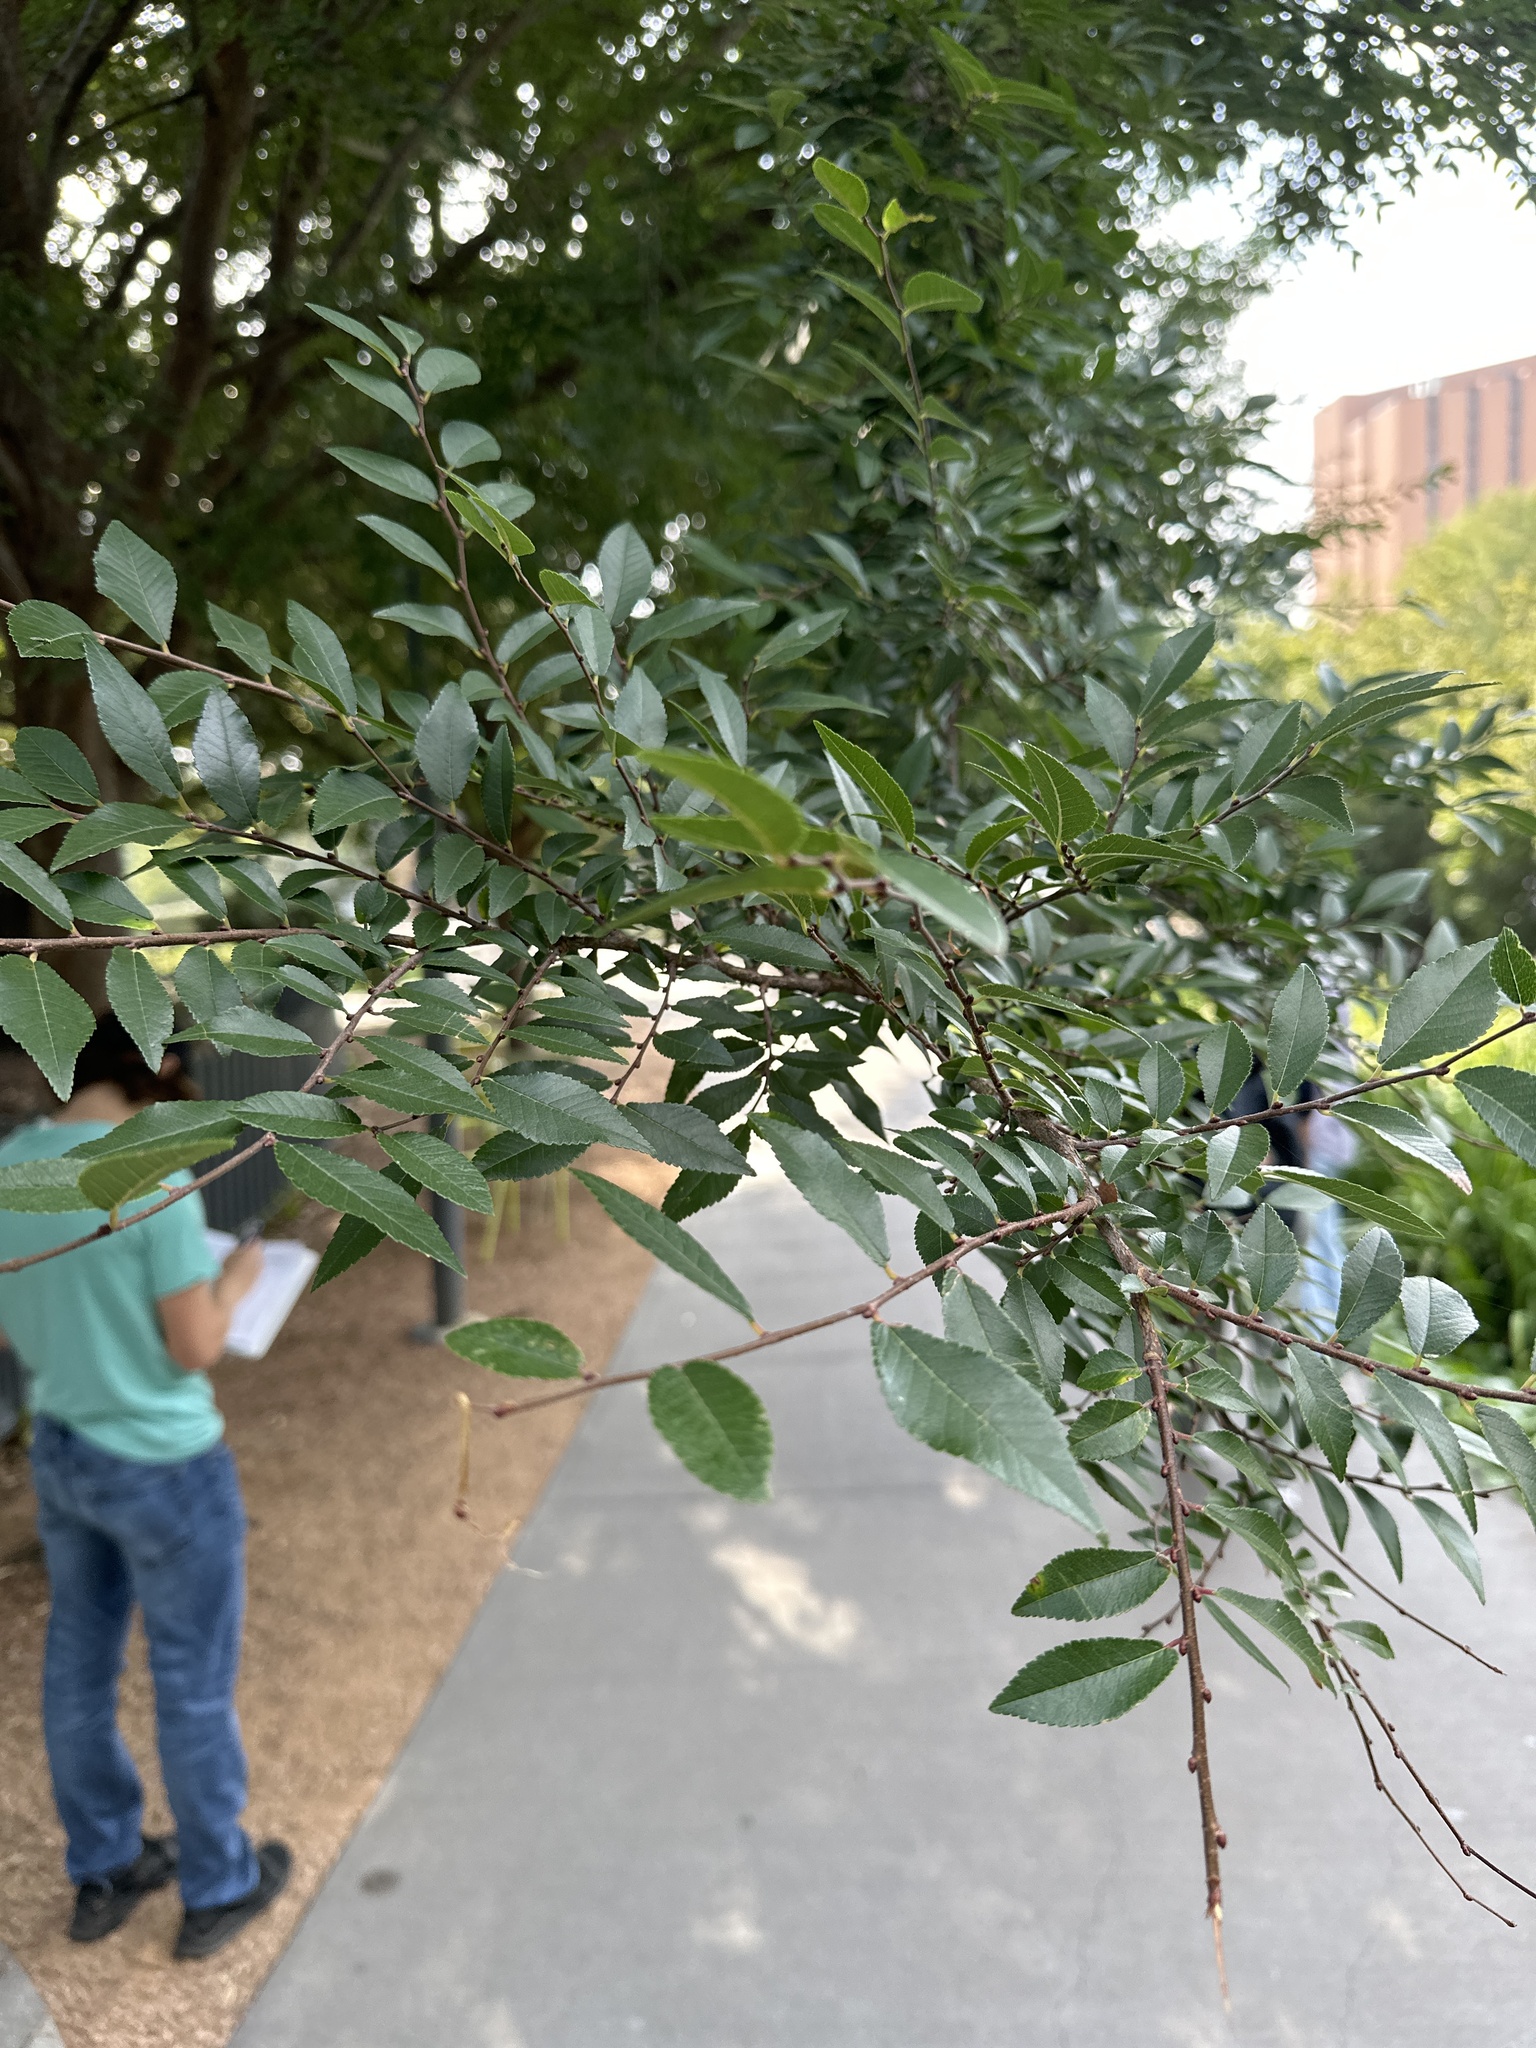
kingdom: Plantae
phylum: Tracheophyta
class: Magnoliopsida
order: Rosales
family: Ulmaceae
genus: Ulmus
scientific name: Ulmus parvifolia
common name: Chinese elm
